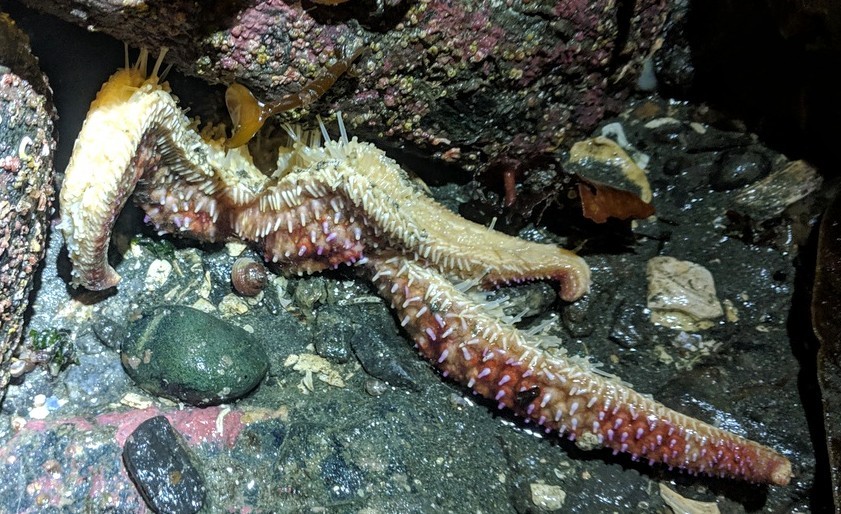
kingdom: Animalia
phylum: Echinodermata
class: Asteroidea
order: Forcipulatida
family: Asteriidae
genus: Orthasterias
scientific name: Orthasterias koehleri
